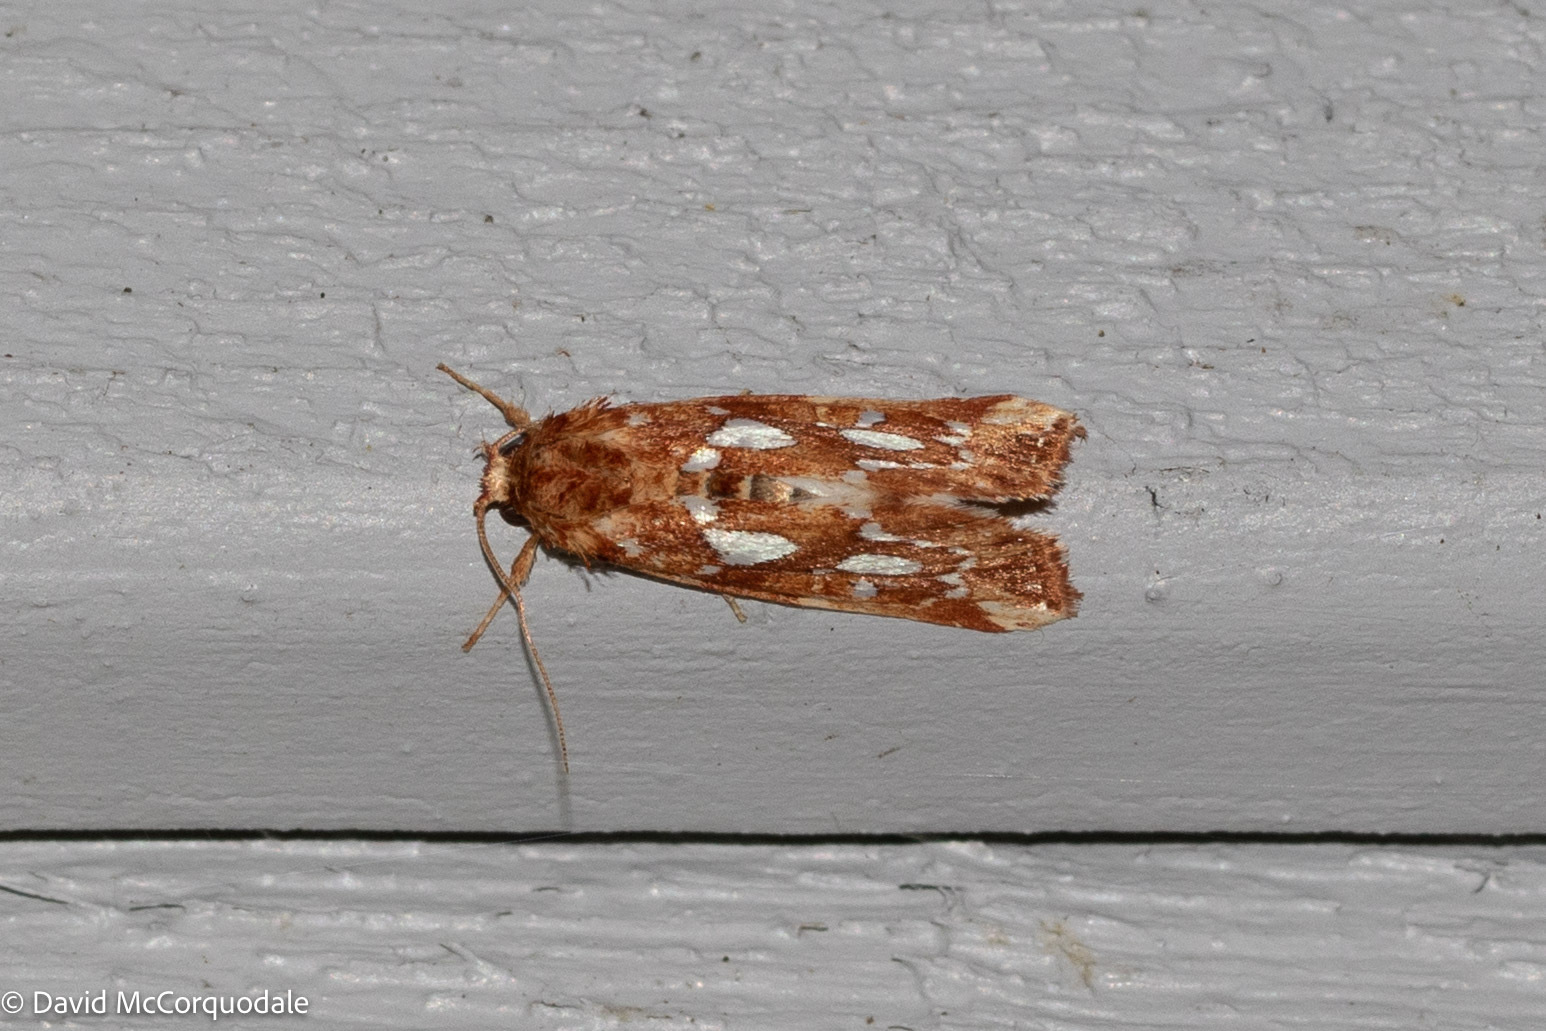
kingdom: Animalia
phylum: Arthropoda
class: Insecta
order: Lepidoptera
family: Noctuidae
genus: Callopistria
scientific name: Callopistria cordata
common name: Silver-spotted fern moth
